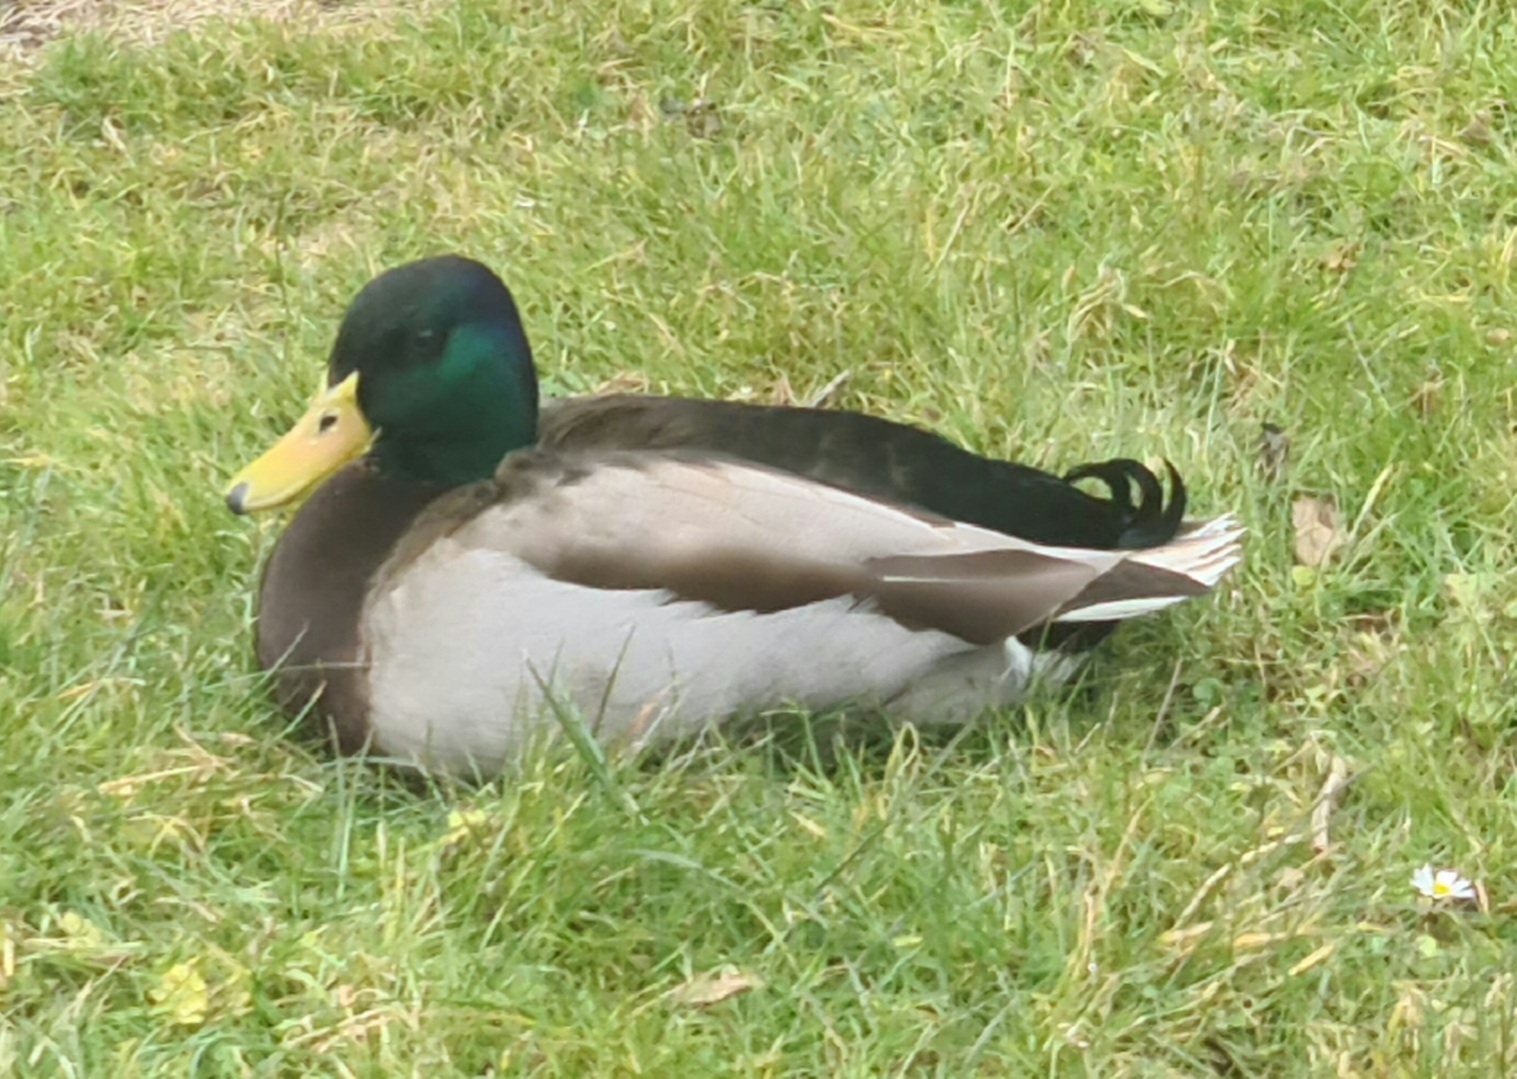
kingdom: Animalia
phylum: Chordata
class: Aves
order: Anseriformes
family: Anatidae
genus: Anas
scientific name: Anas platyrhynchos
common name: Mallard
